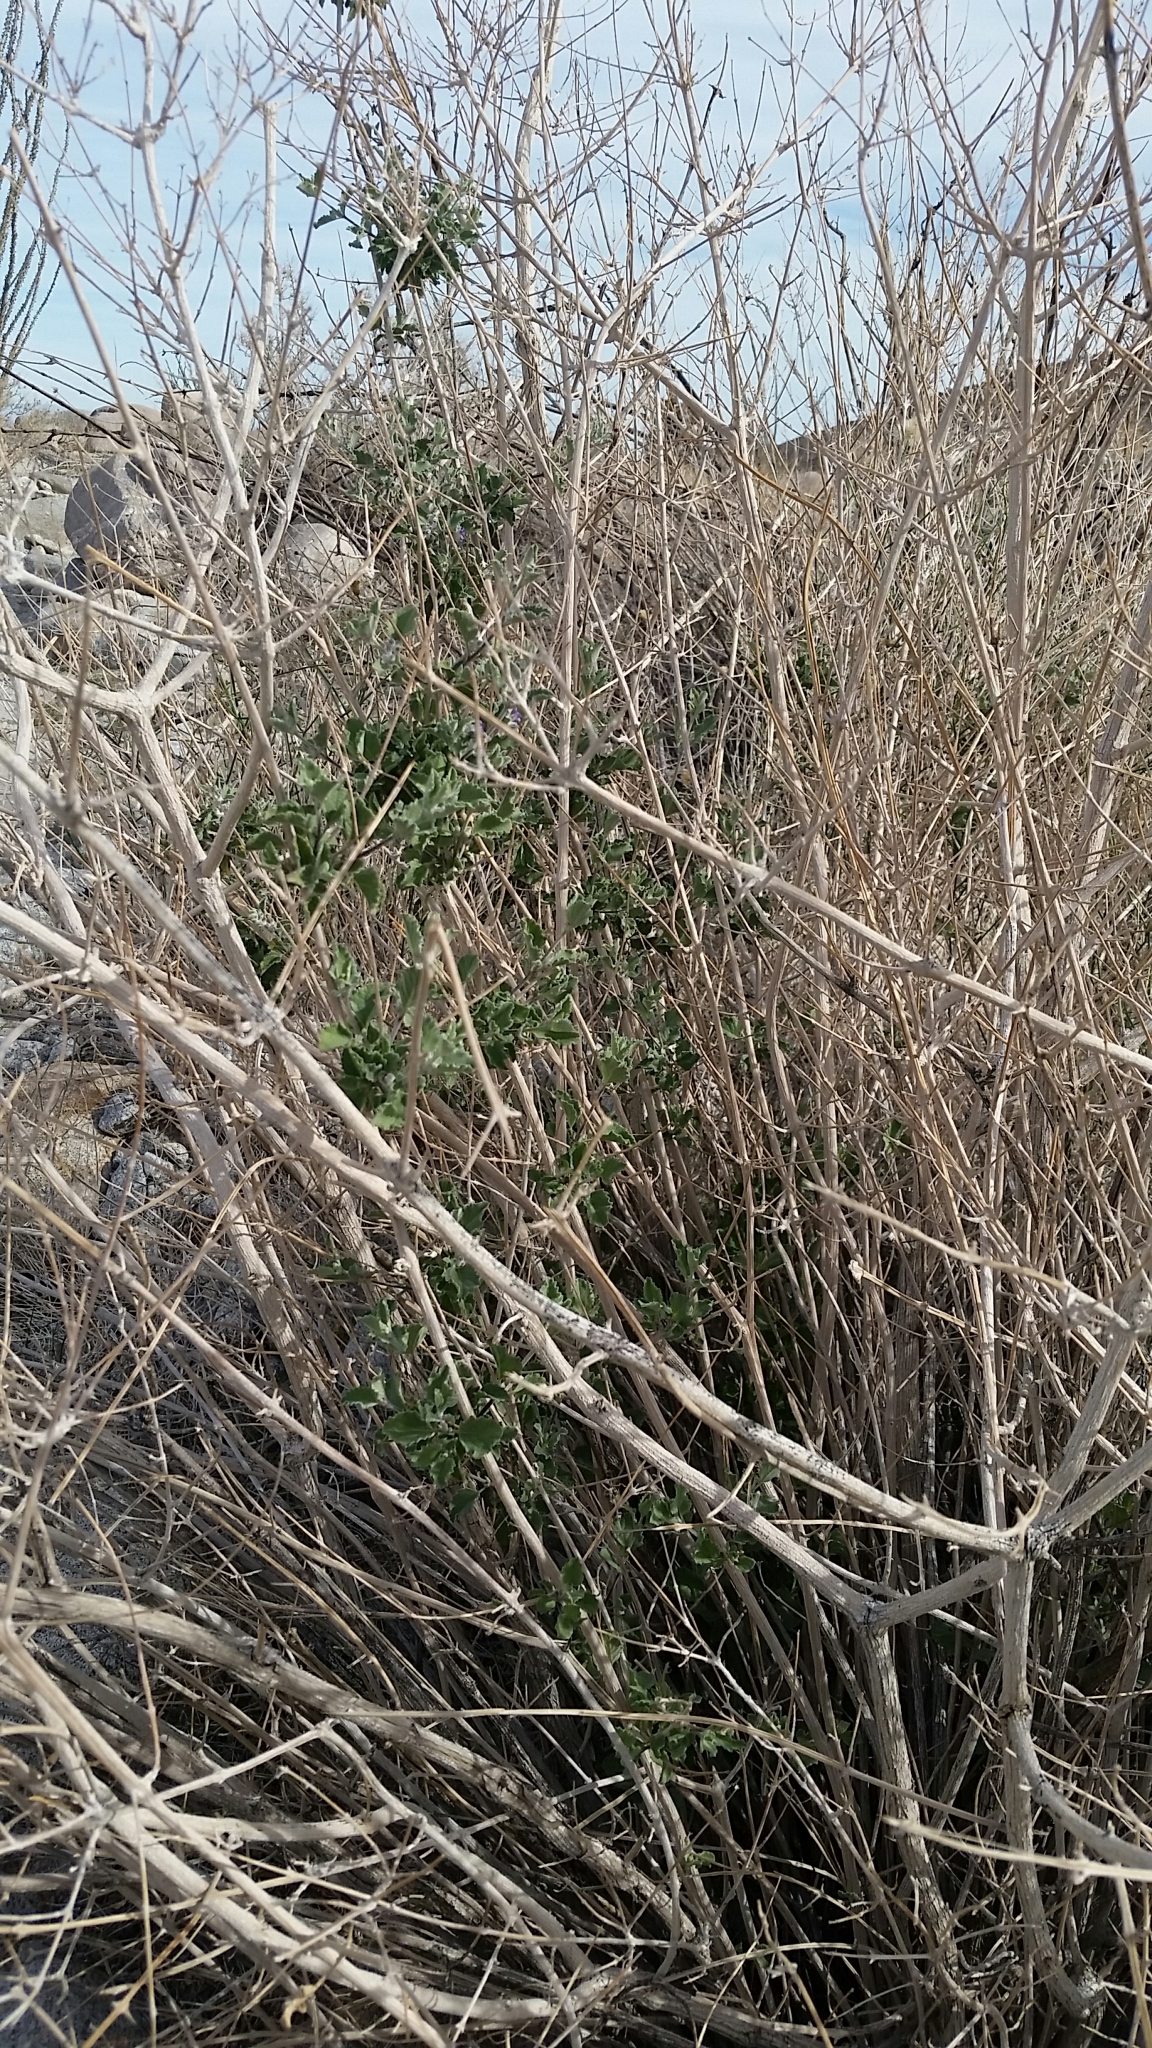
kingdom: Plantae
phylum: Tracheophyta
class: Magnoliopsida
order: Lamiales
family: Lamiaceae
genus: Condea
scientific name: Condea emoryi
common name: Chia
